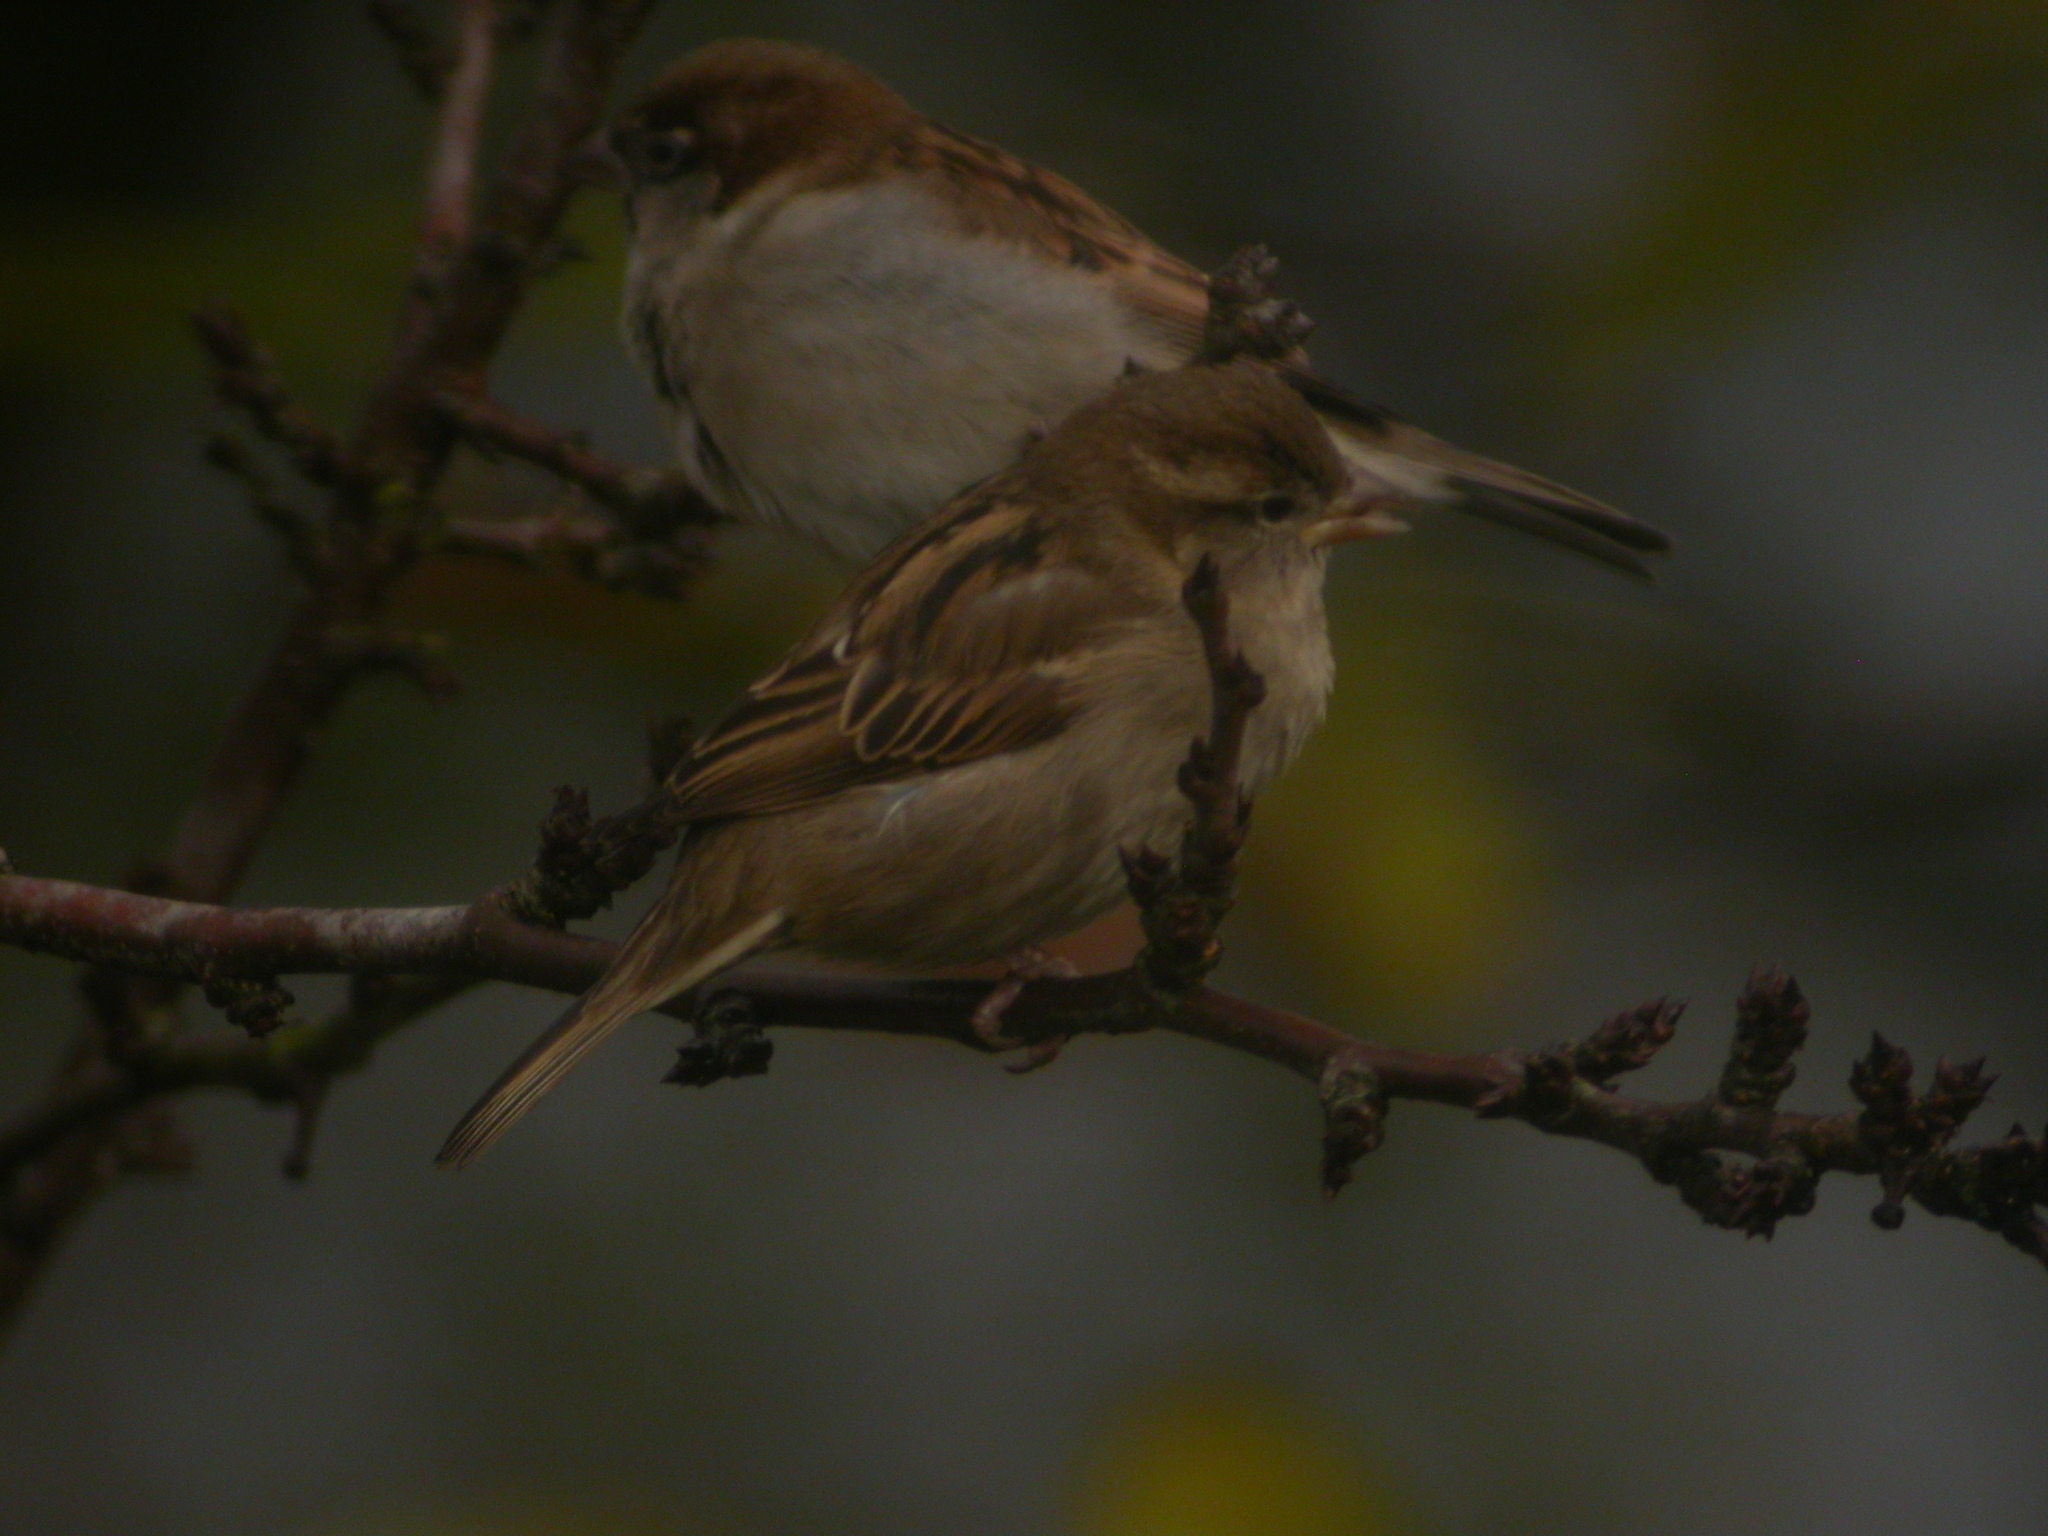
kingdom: Animalia
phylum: Chordata
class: Aves
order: Passeriformes
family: Passeridae
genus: Passer
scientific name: Passer domesticus
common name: House sparrow
